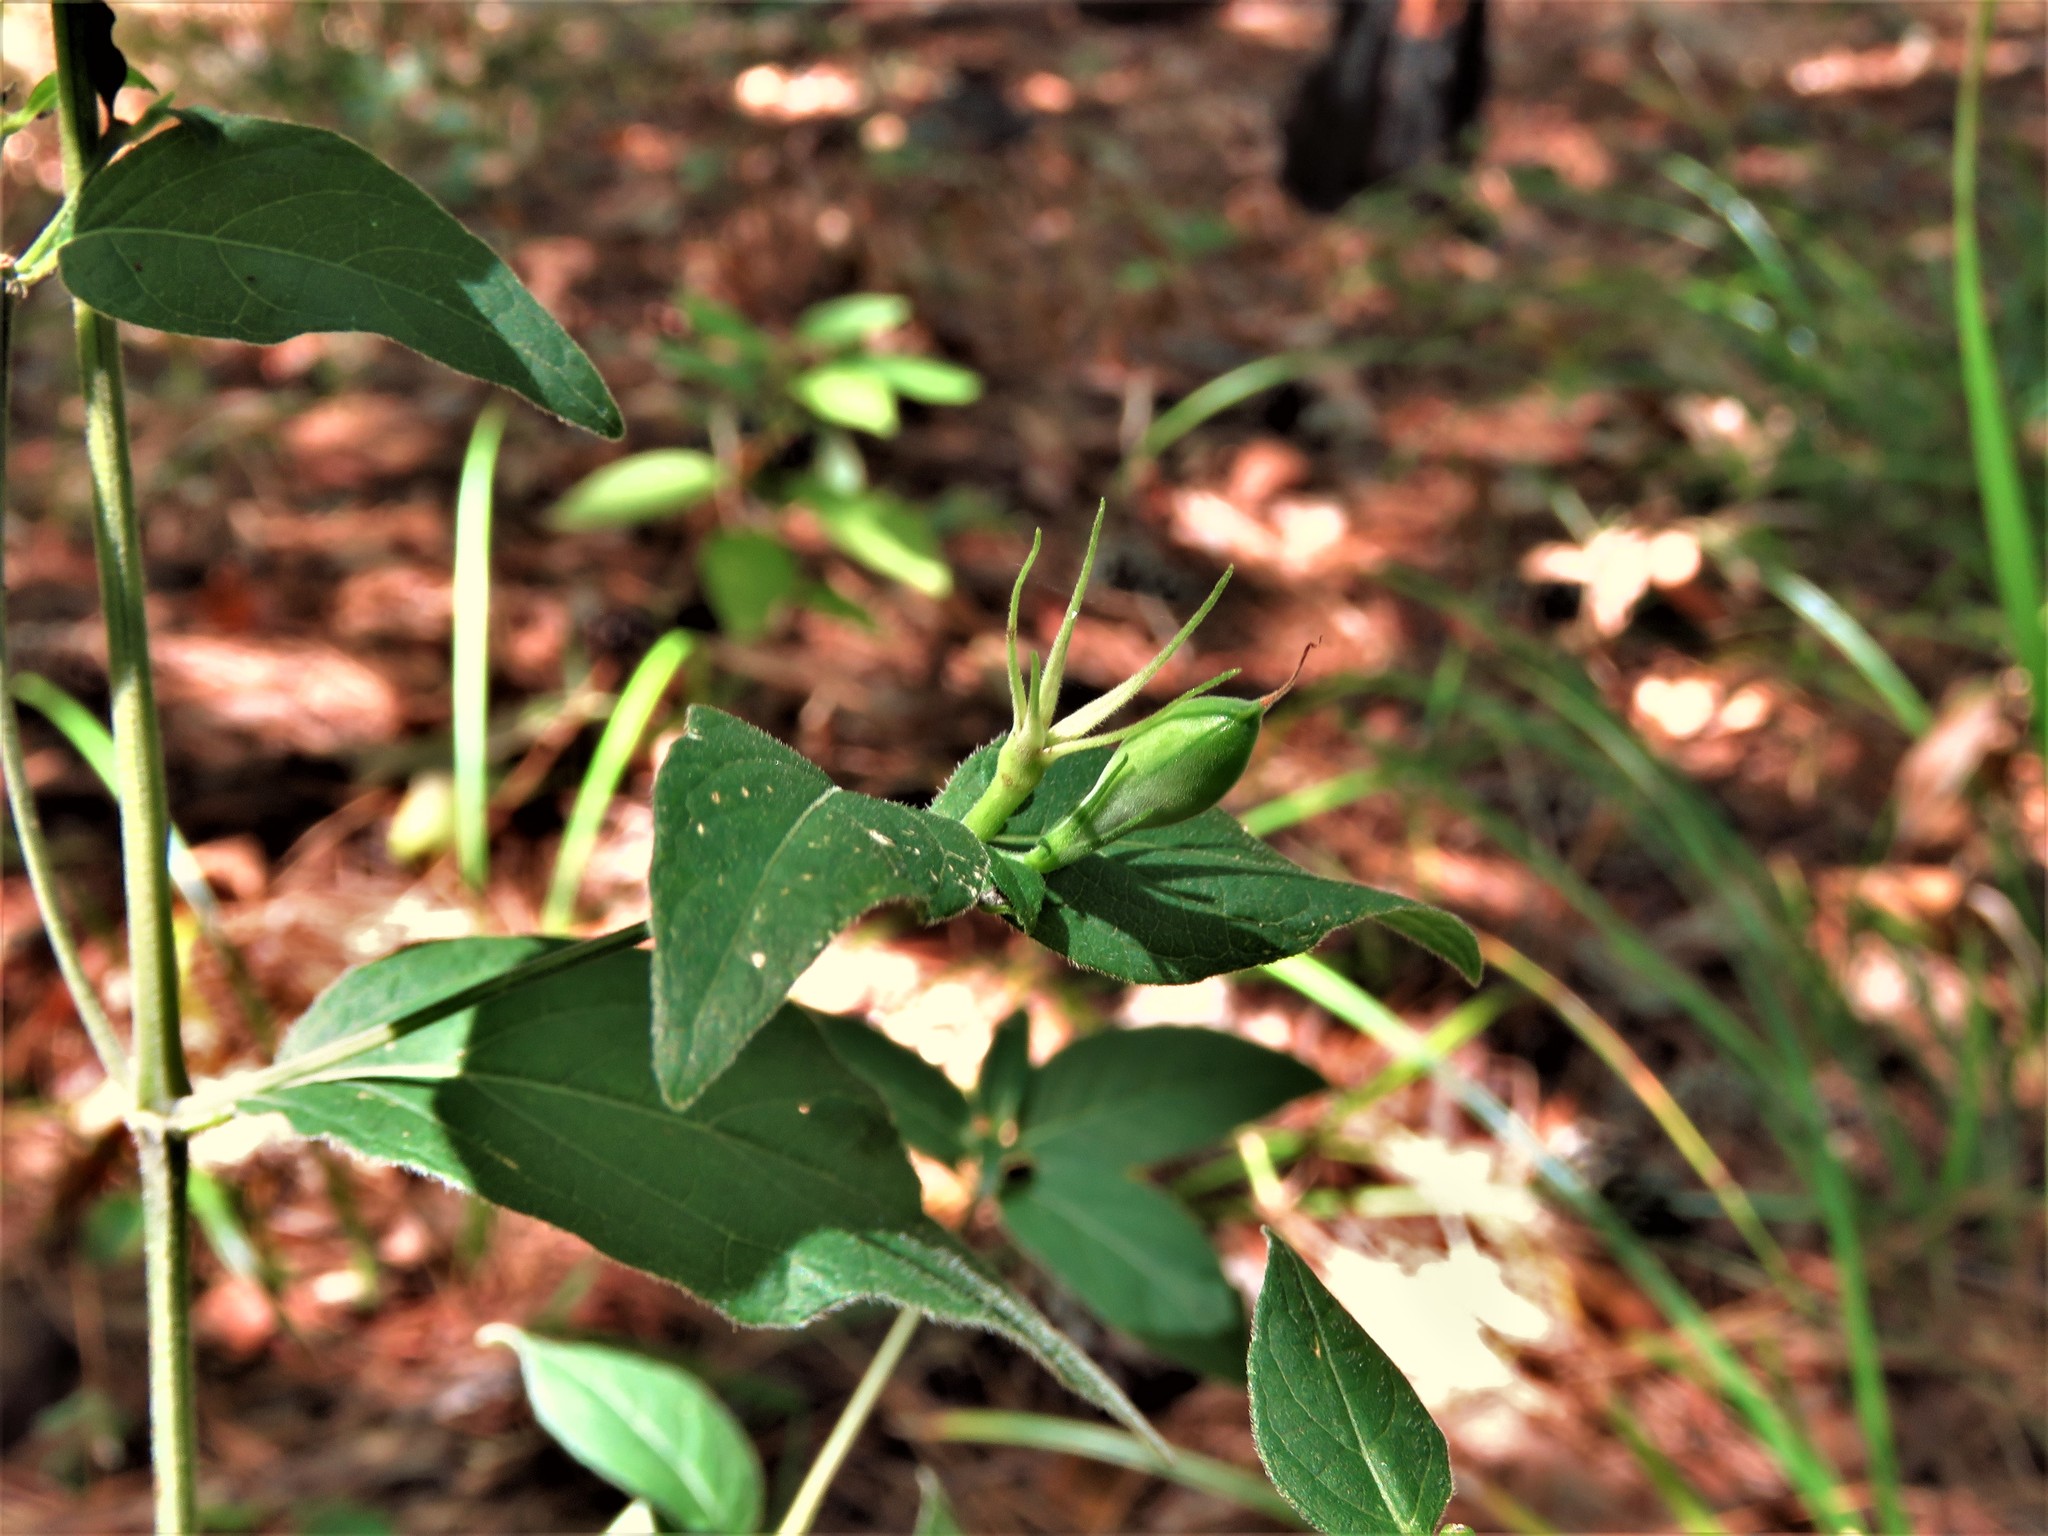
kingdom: Plantae
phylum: Tracheophyta
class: Magnoliopsida
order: Lamiales
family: Acanthaceae
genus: Ruellia
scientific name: Ruellia pedunculata
